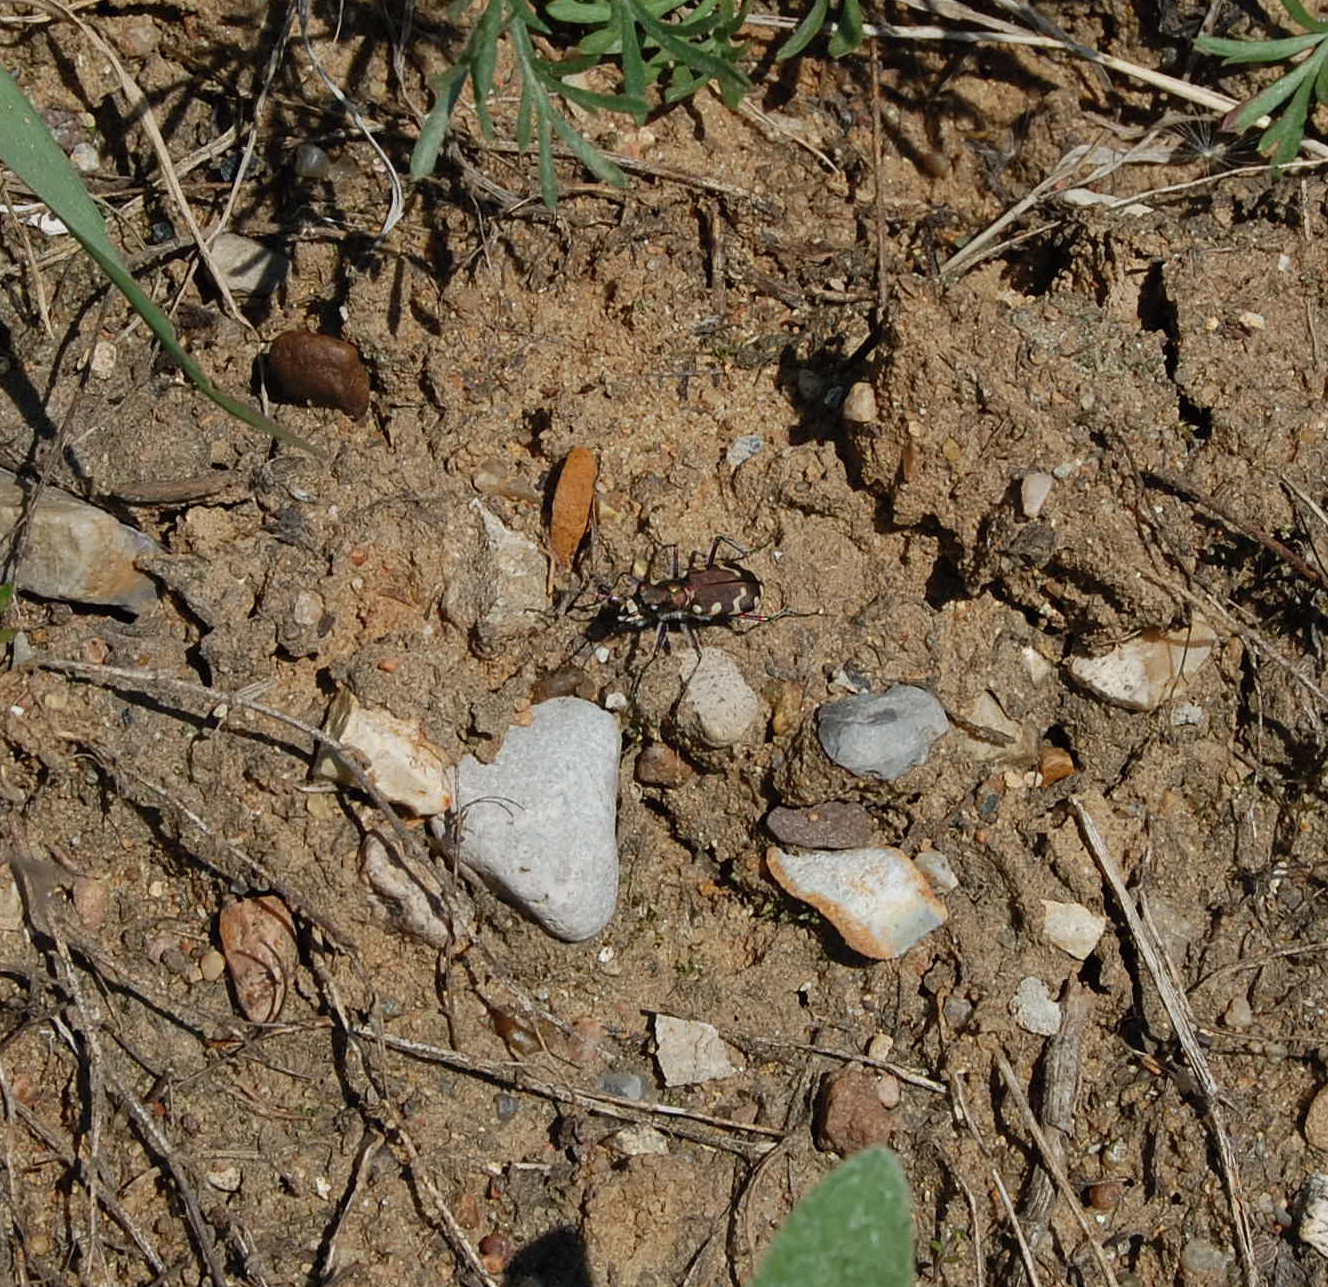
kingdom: Animalia
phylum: Arthropoda
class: Insecta
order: Coleoptera
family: Carabidae
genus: Cicindela
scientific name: Cicindela hybrida
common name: Northern dune tiger beetle
